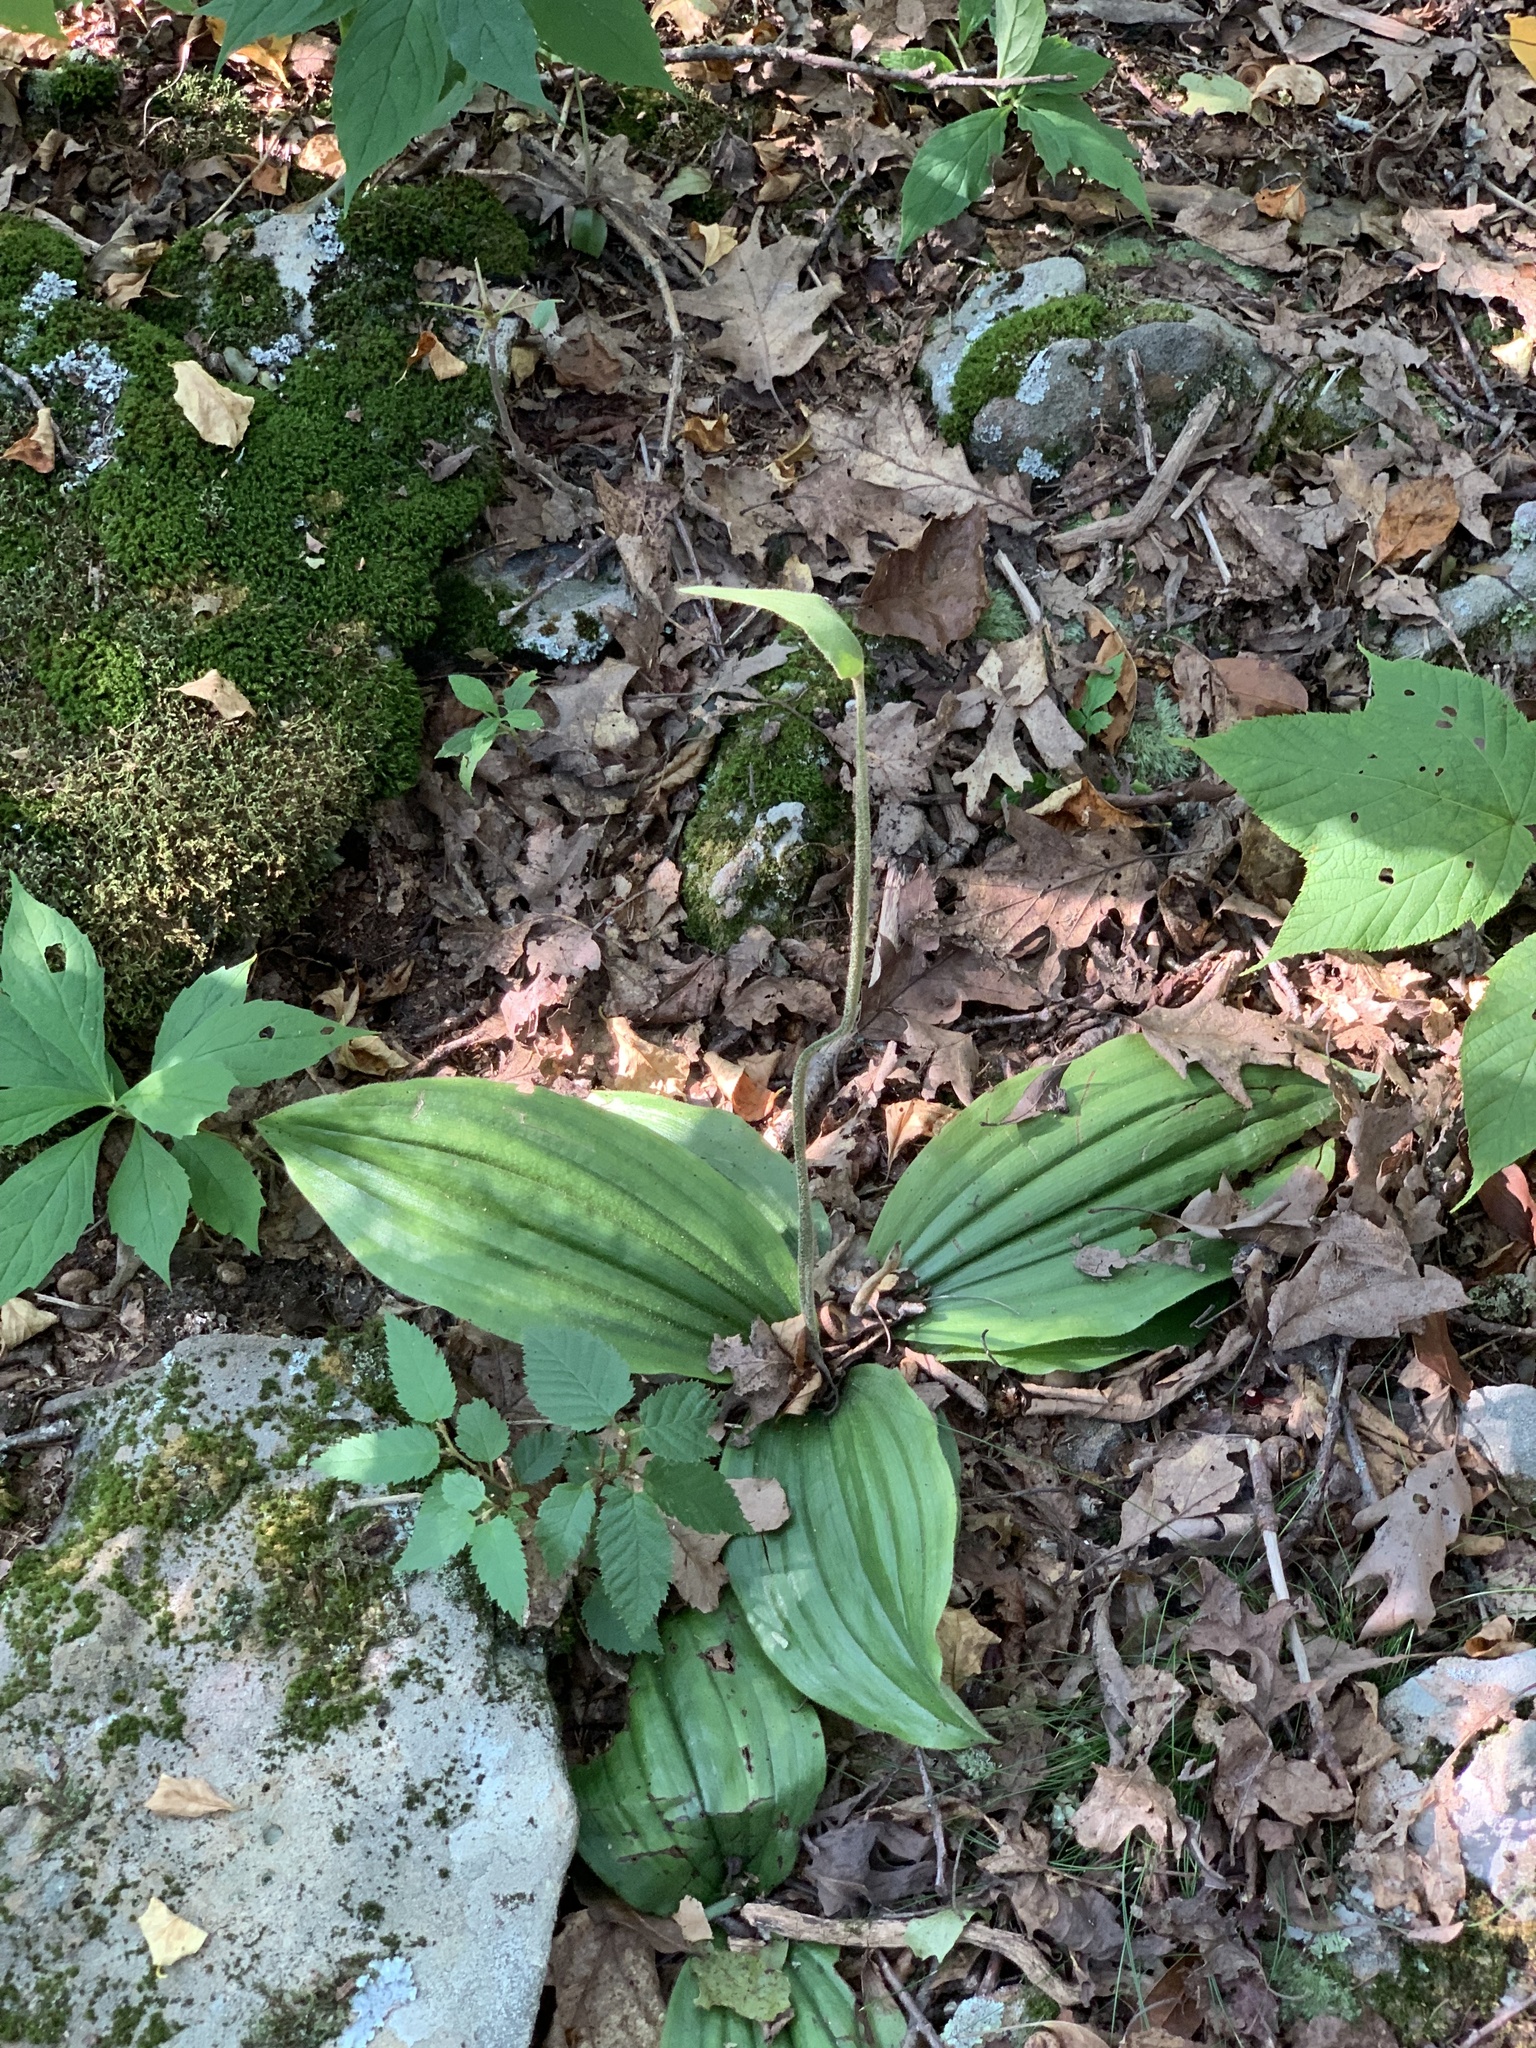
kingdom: Plantae
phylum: Tracheophyta
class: Liliopsida
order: Asparagales
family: Orchidaceae
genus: Cypripedium
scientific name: Cypripedium acaule
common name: Pink lady's-slipper
